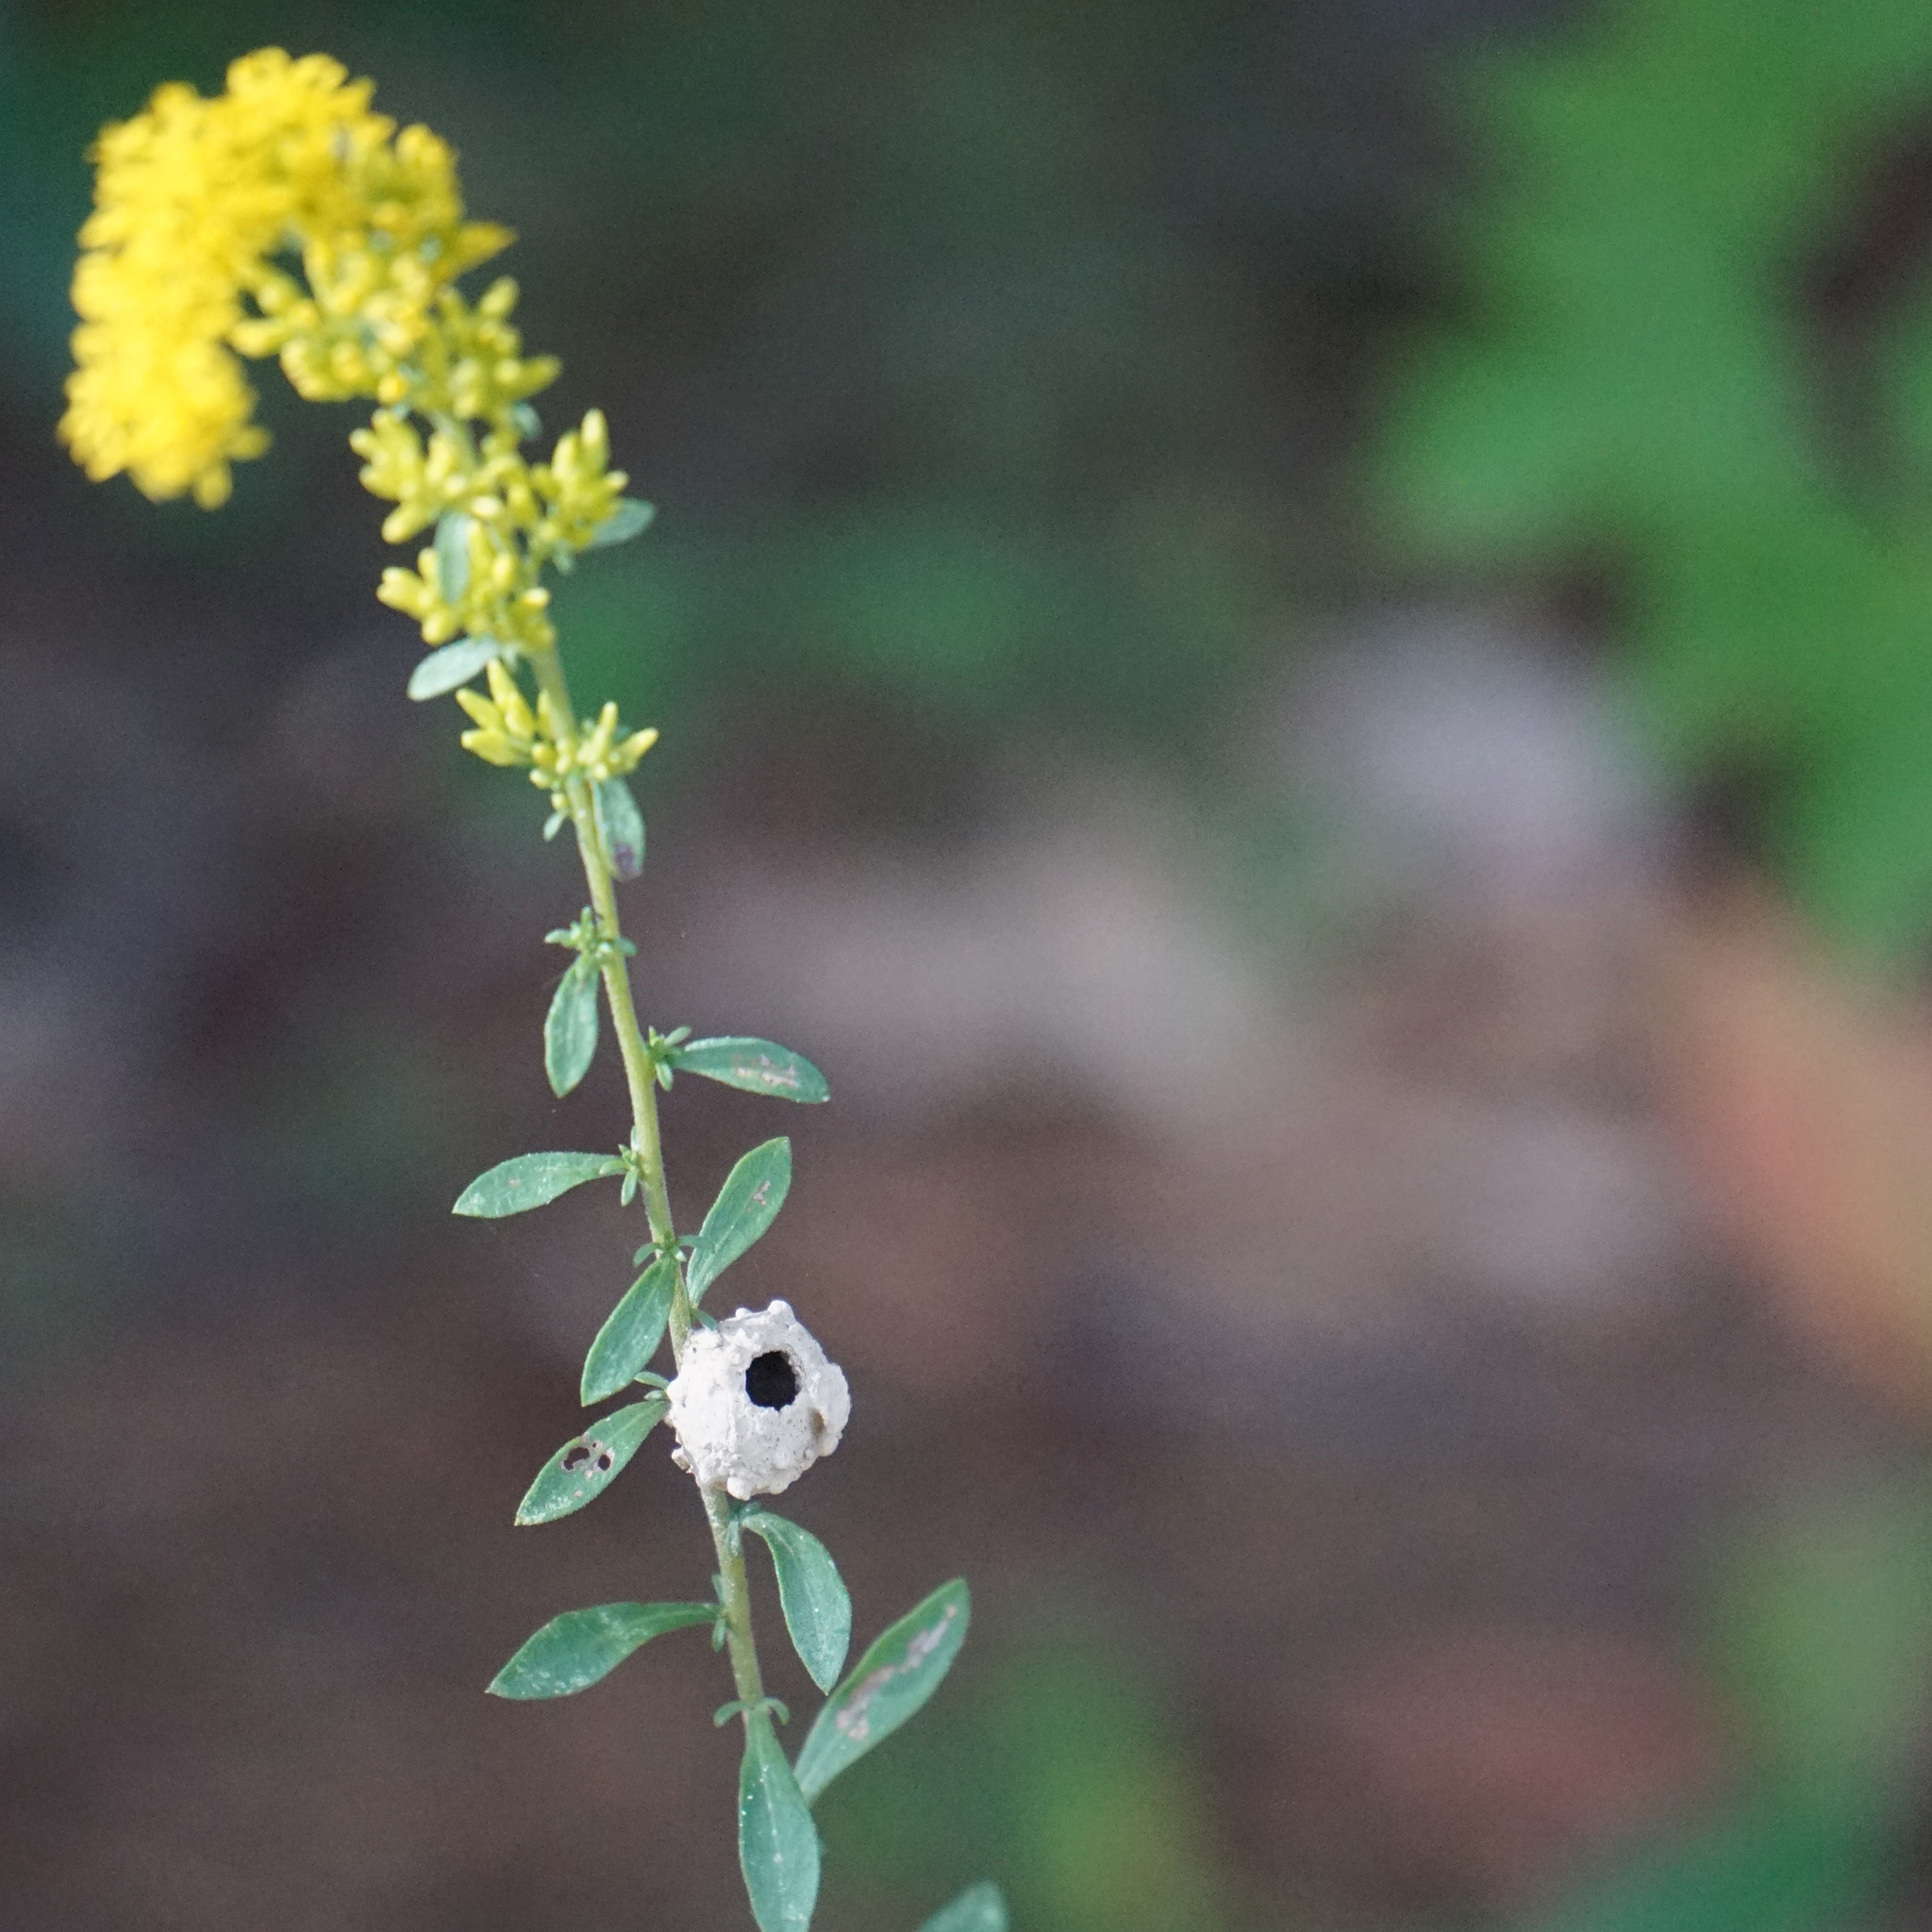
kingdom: Animalia
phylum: Arthropoda
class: Insecta
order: Hymenoptera
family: Vespidae
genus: Eumenes
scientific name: Eumenes
